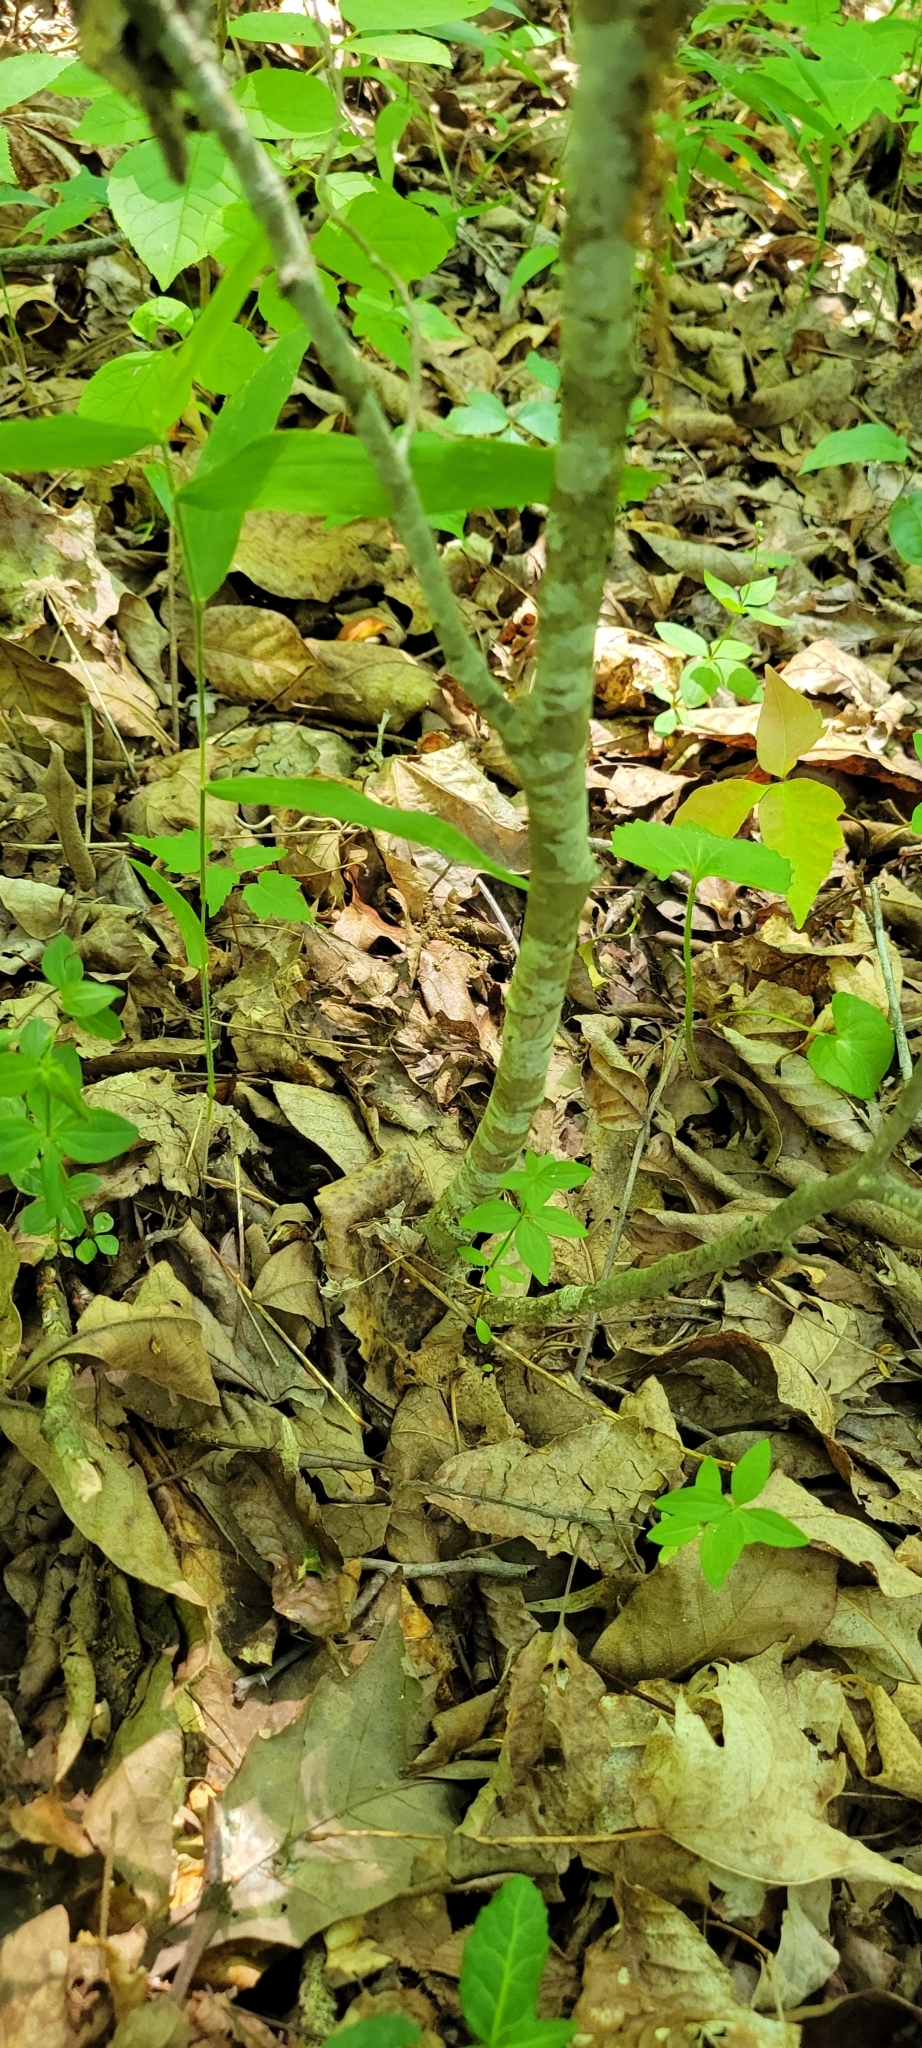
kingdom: Plantae
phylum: Tracheophyta
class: Magnoliopsida
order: Fagales
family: Betulaceae
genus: Ostrya
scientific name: Ostrya virginiana
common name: Ironwood
